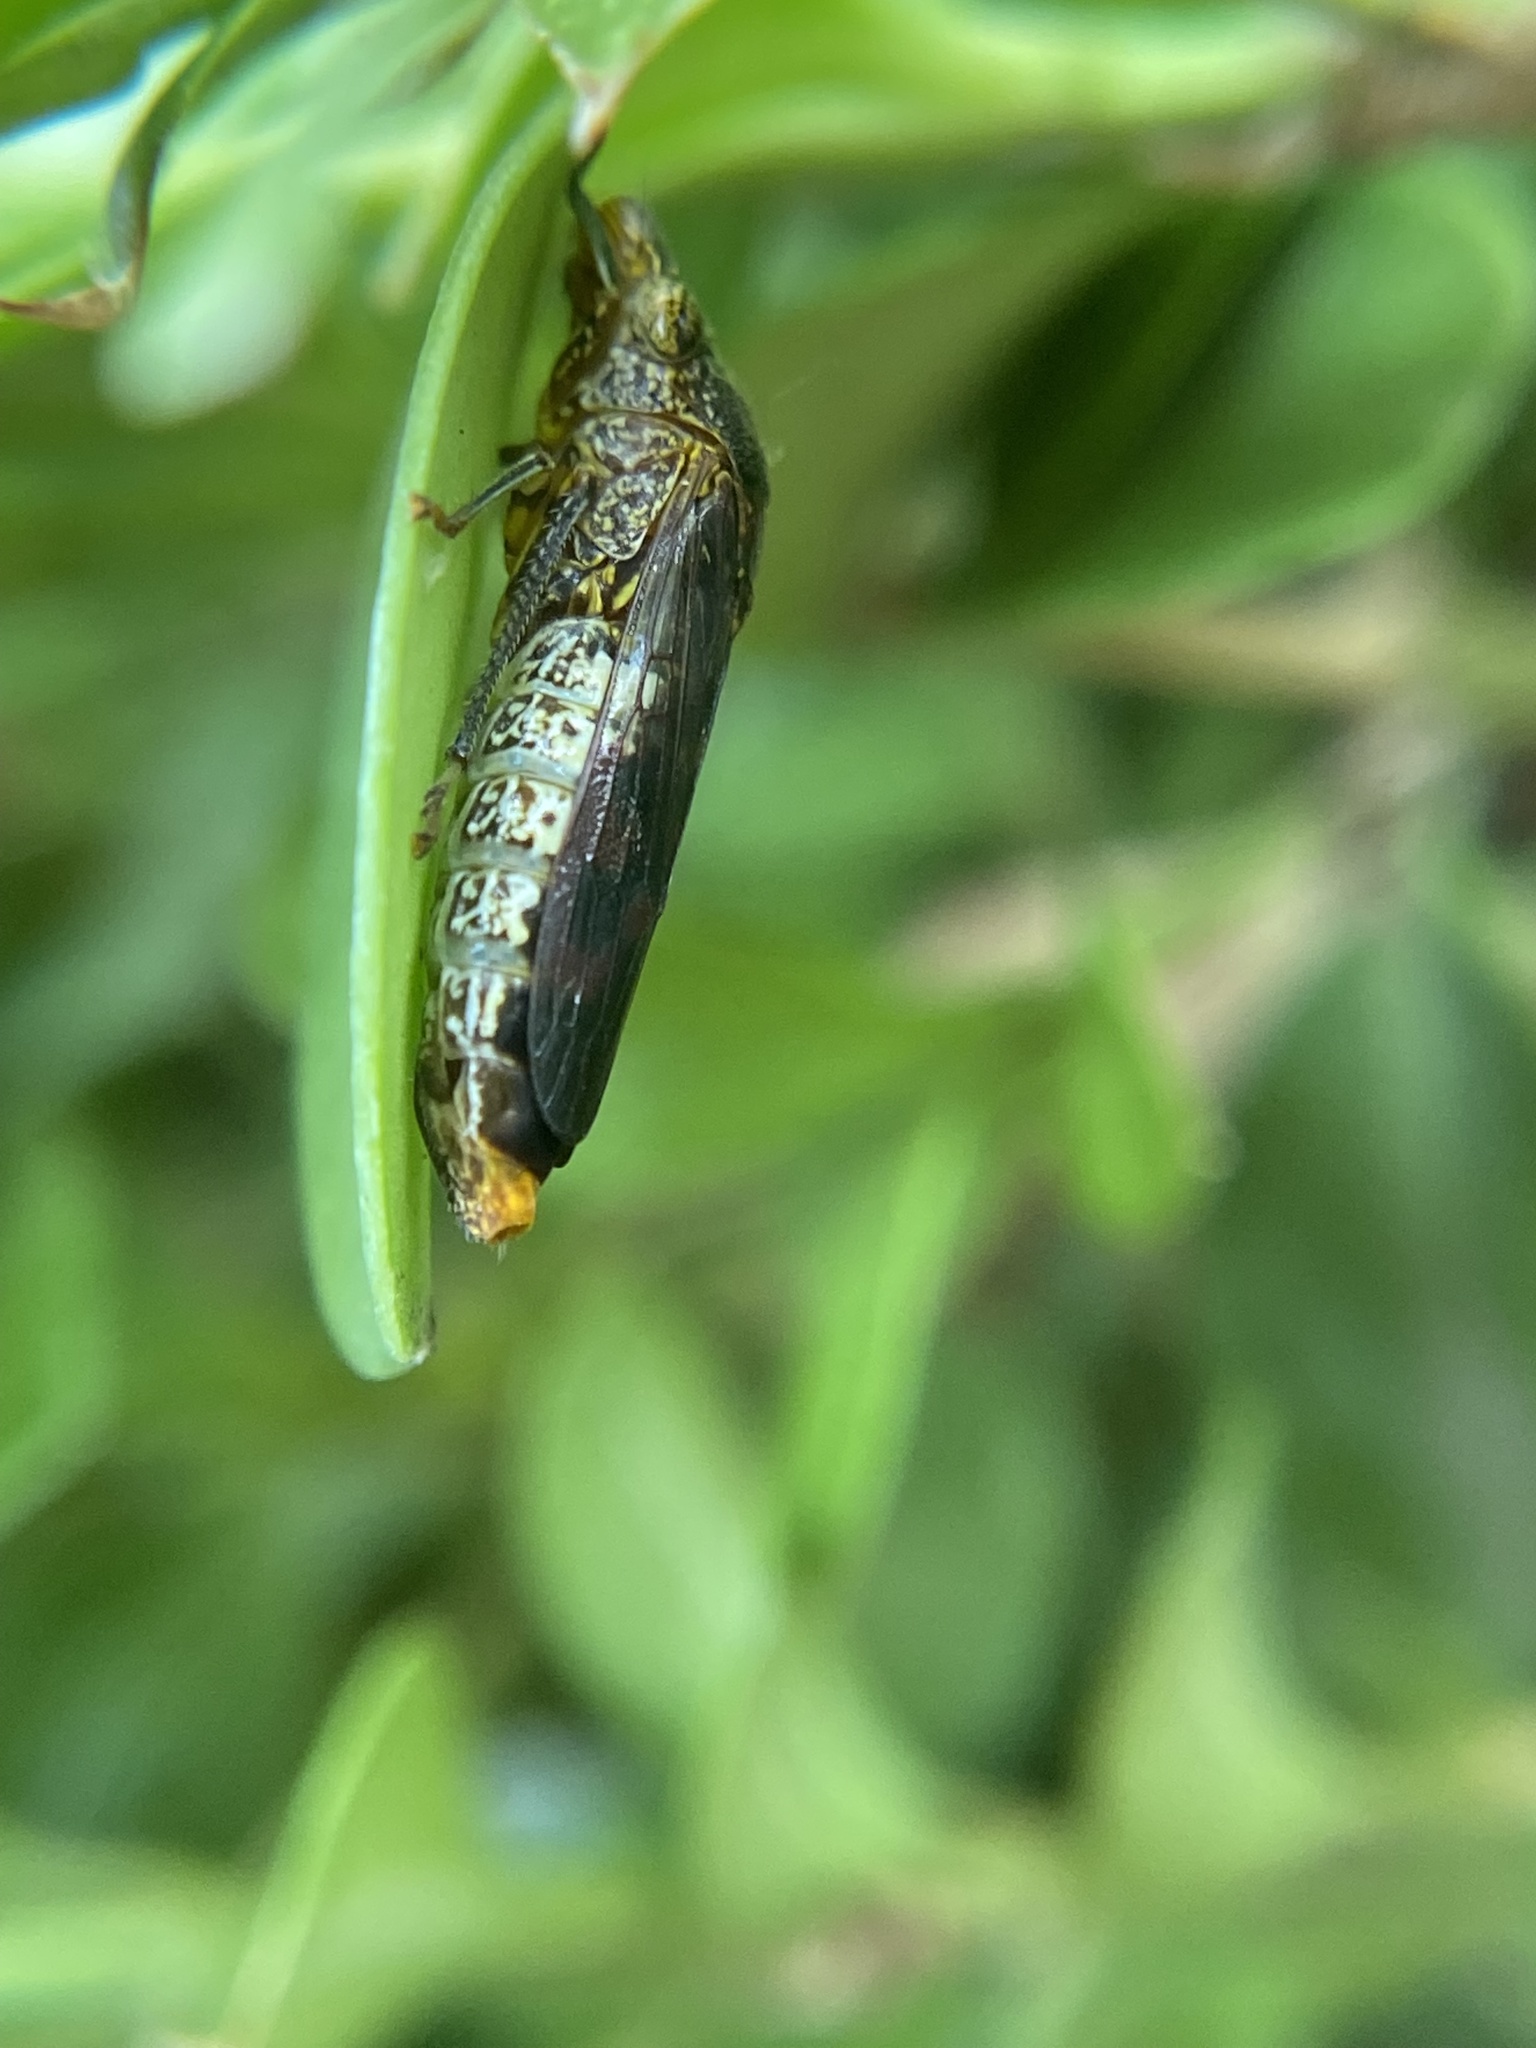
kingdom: Animalia
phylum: Arthropoda
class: Insecta
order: Hemiptera
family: Cicadellidae
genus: Homalodisca
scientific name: Homalodisca vitripennis
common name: Glassy-winged sharpshooter
